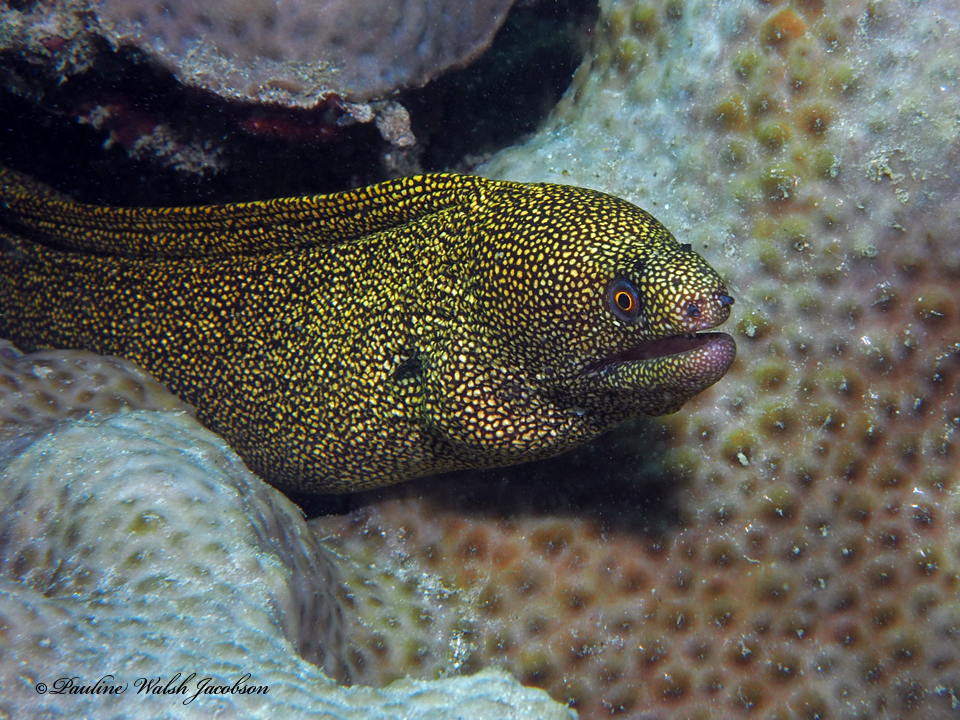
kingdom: Animalia
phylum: Chordata
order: Anguilliformes
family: Muraenidae
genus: Gymnothorax
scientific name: Gymnothorax miliaris
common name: Goldentail moray
